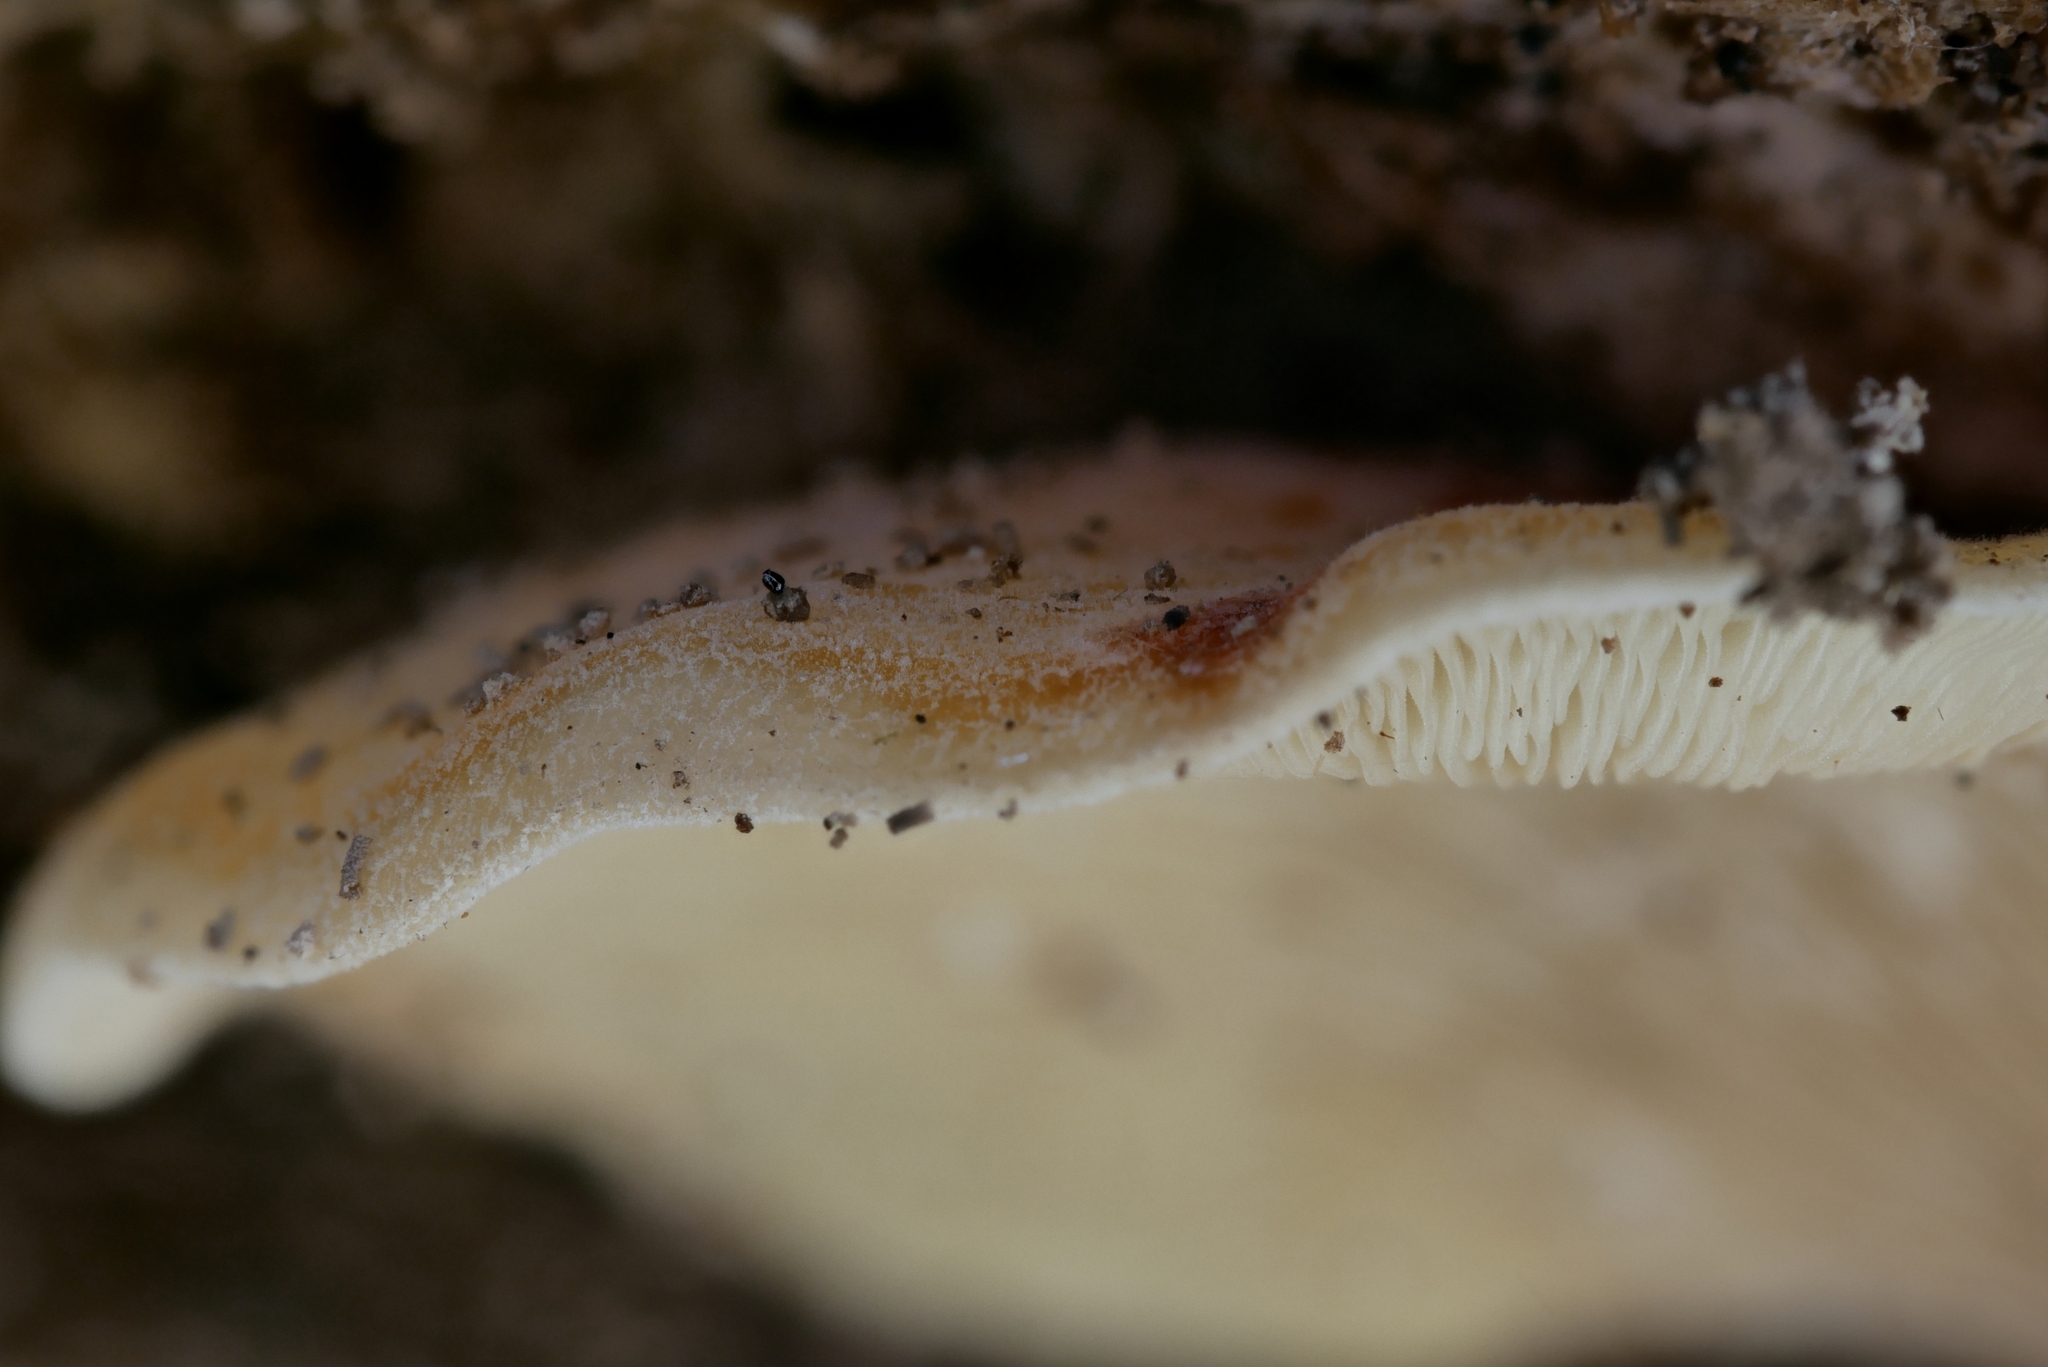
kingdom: Fungi
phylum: Basidiomycota
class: Agaricomycetes
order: Agaricales
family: Pleurotaceae
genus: Hohenbuehelia
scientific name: Hohenbuehelia angustata
